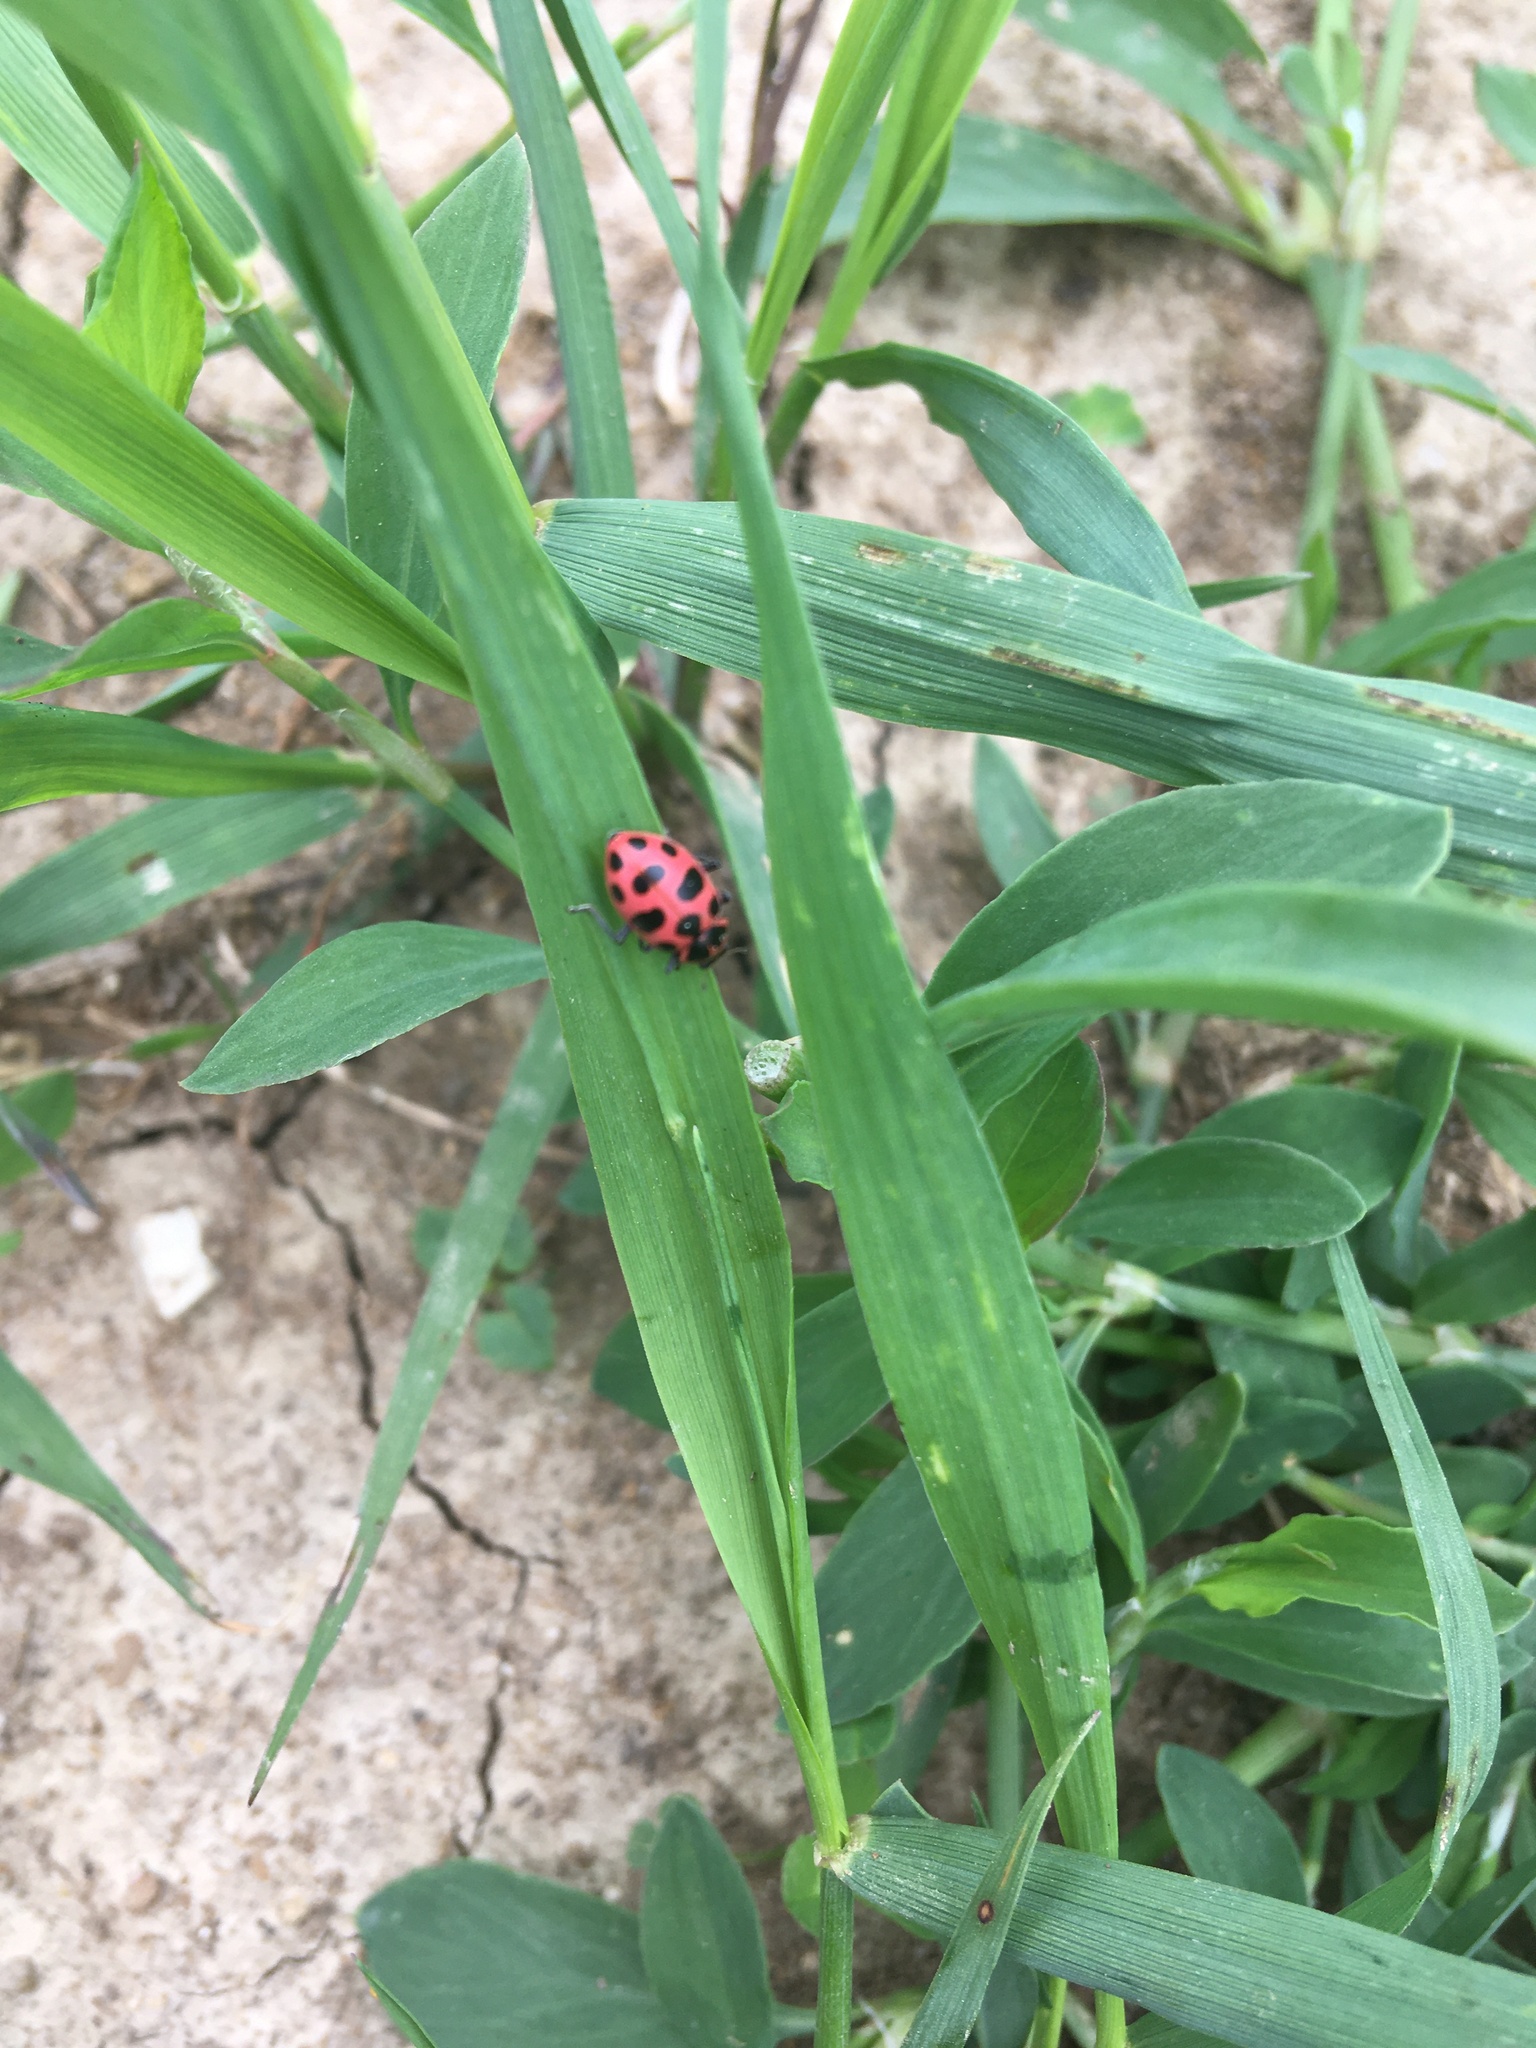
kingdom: Animalia
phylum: Arthropoda
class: Insecta
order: Coleoptera
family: Coccinellidae
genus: Coleomegilla
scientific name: Coleomegilla maculata
